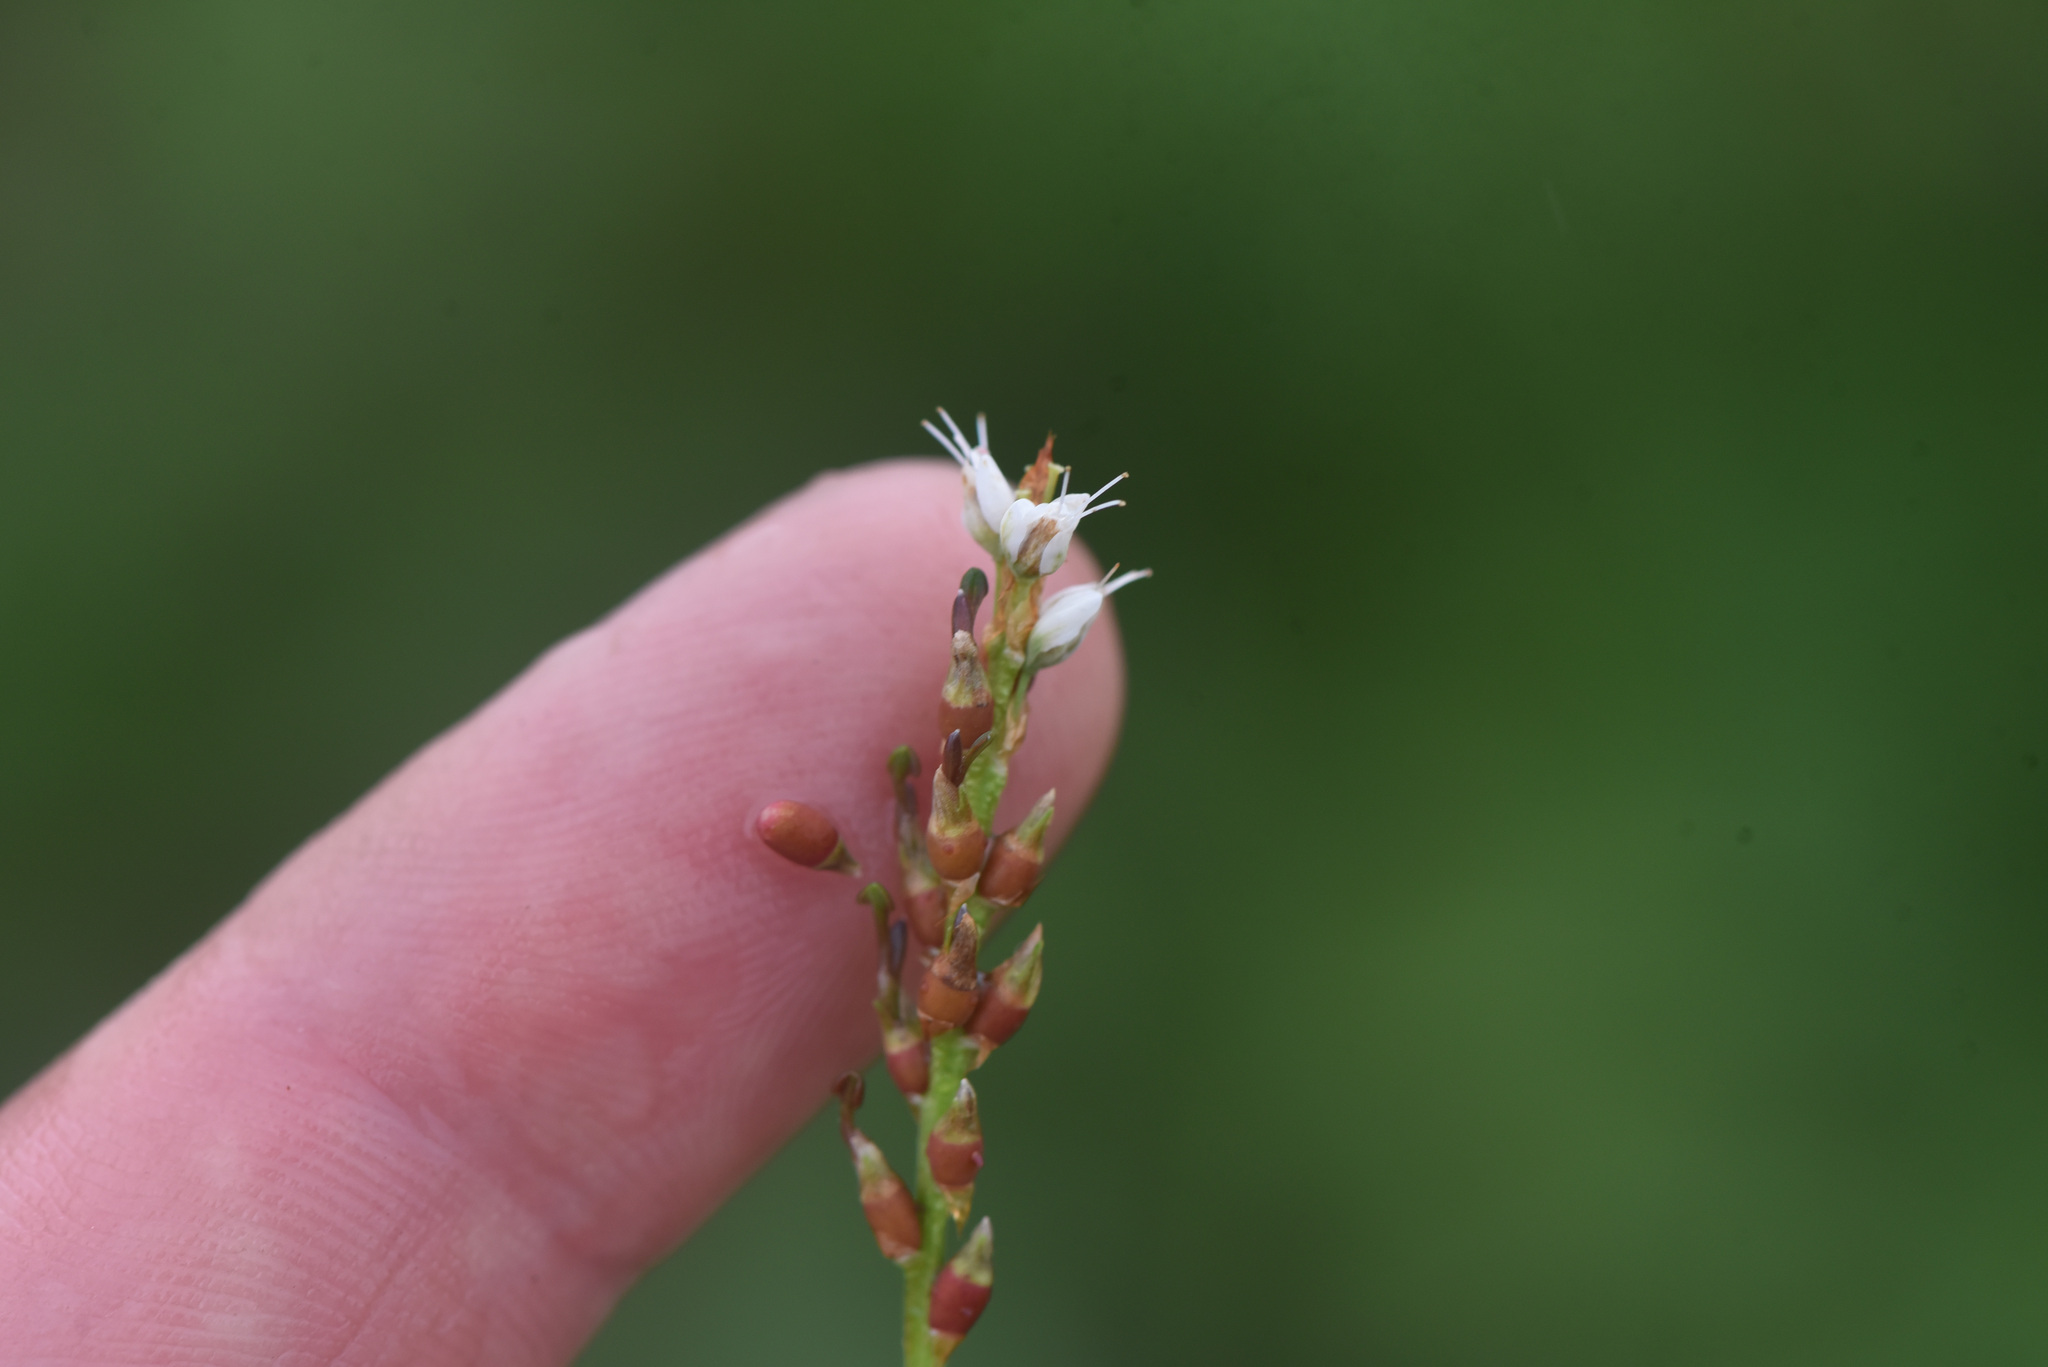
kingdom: Plantae
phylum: Tracheophyta
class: Magnoliopsida
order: Caryophyllales
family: Polygonaceae
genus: Bistorta
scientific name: Bistorta vivipara
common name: Alpine bistort
